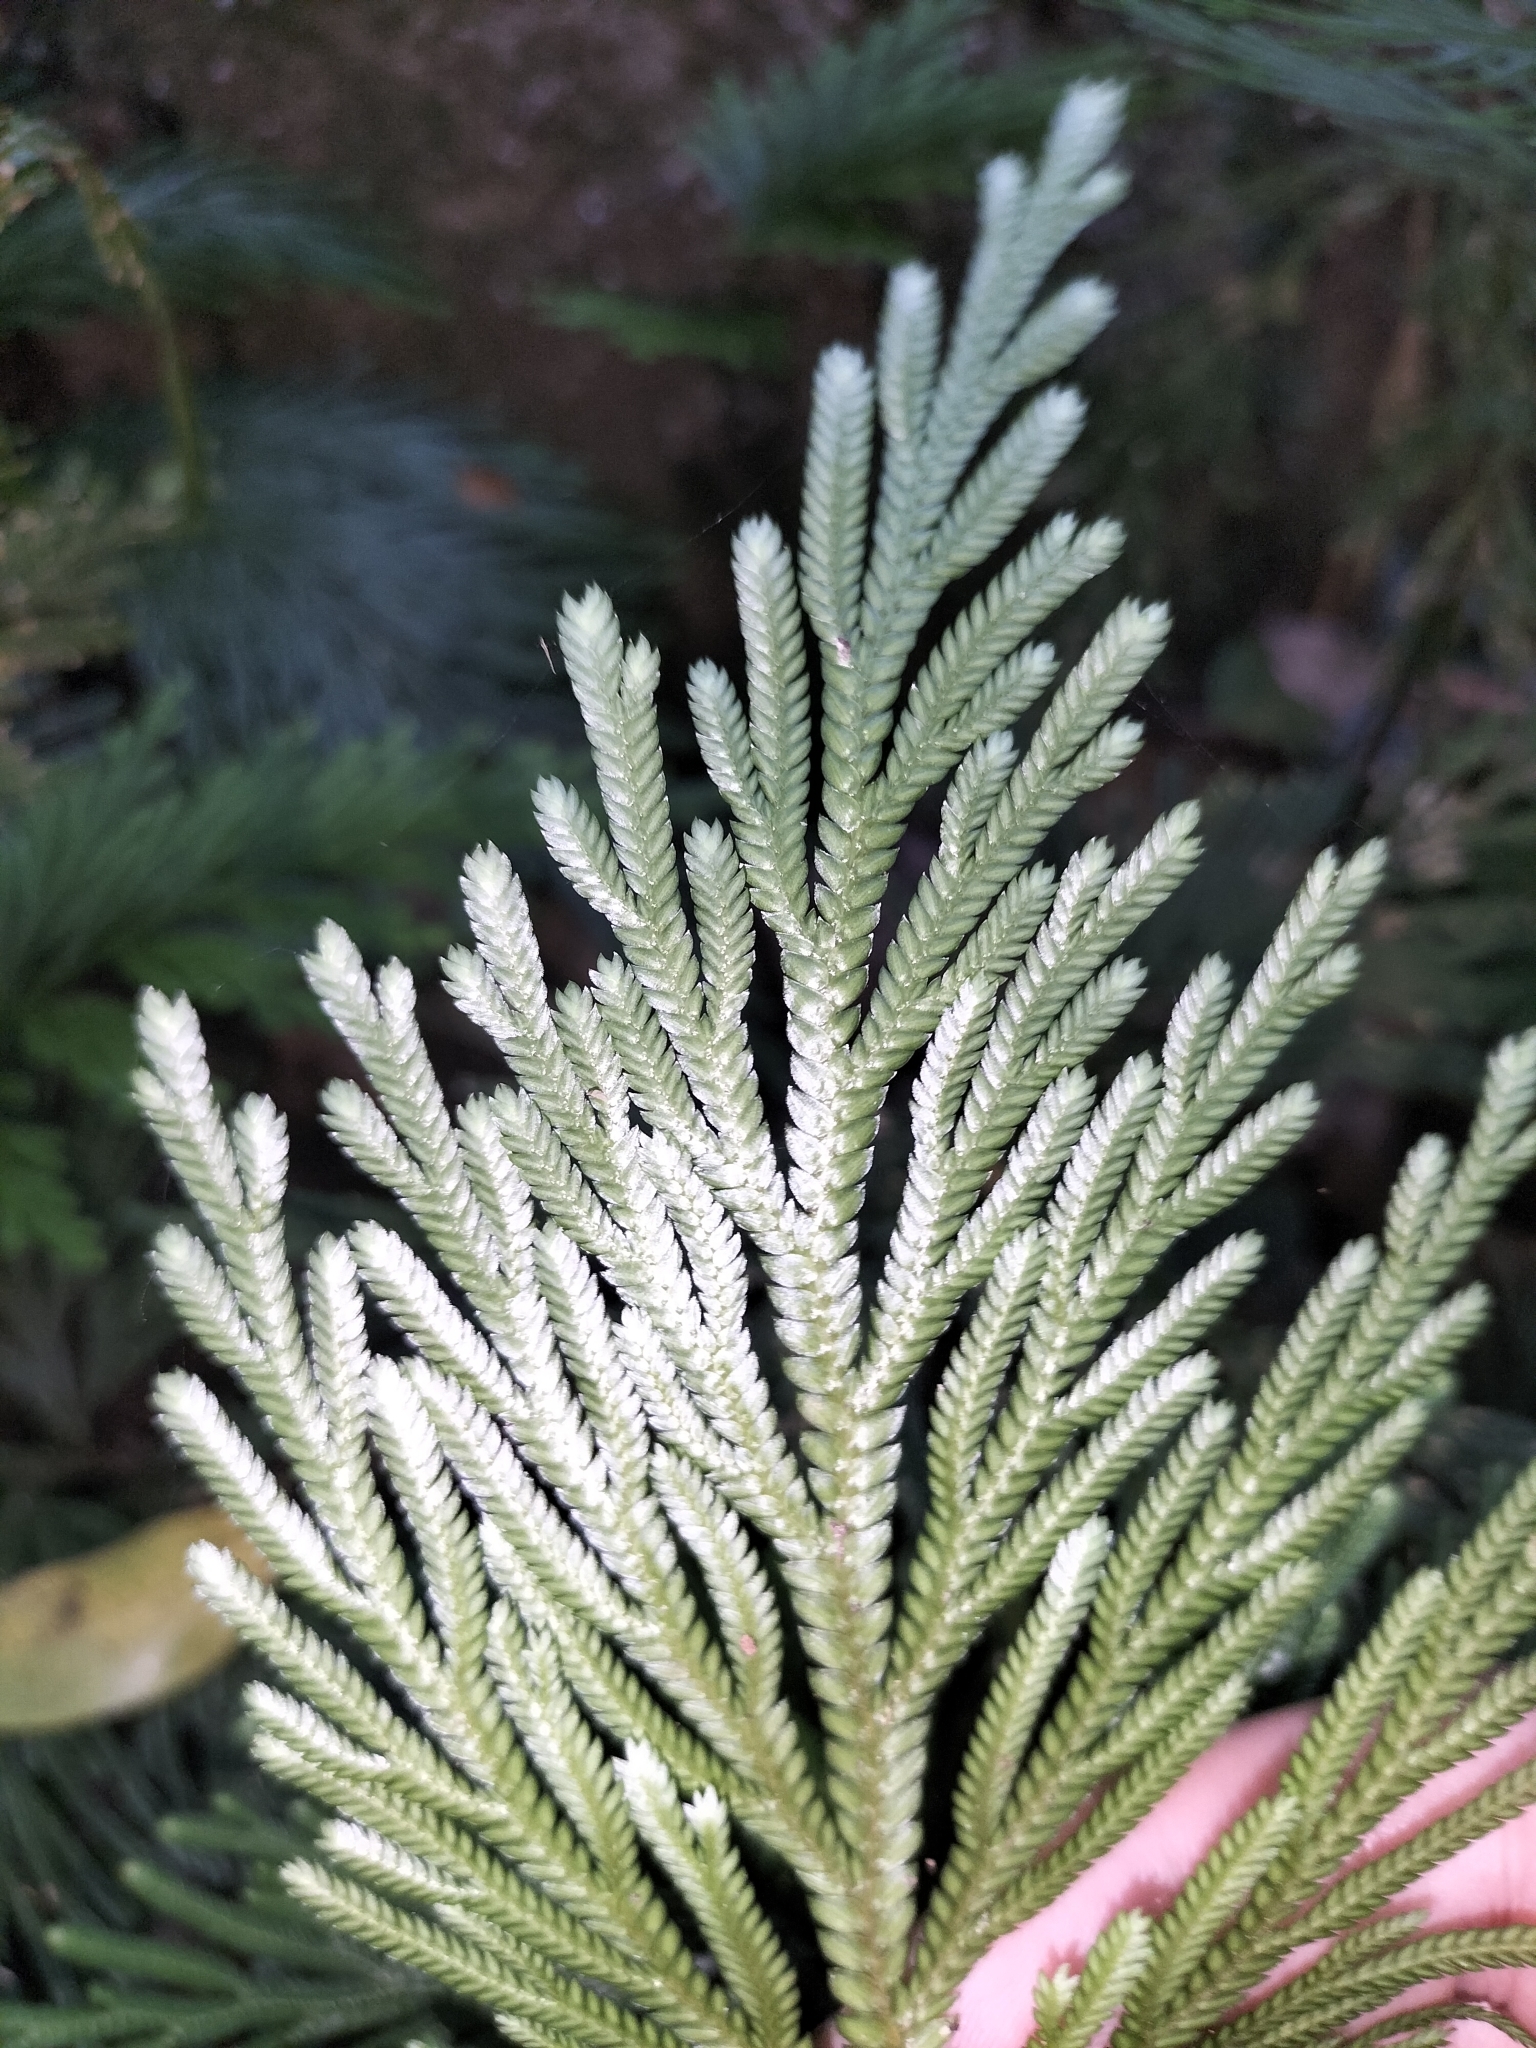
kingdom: Plantae
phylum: Tracheophyta
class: Lycopodiopsida
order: Selaginellales
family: Selaginellaceae
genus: Selaginella
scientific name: Selaginella longipinna
